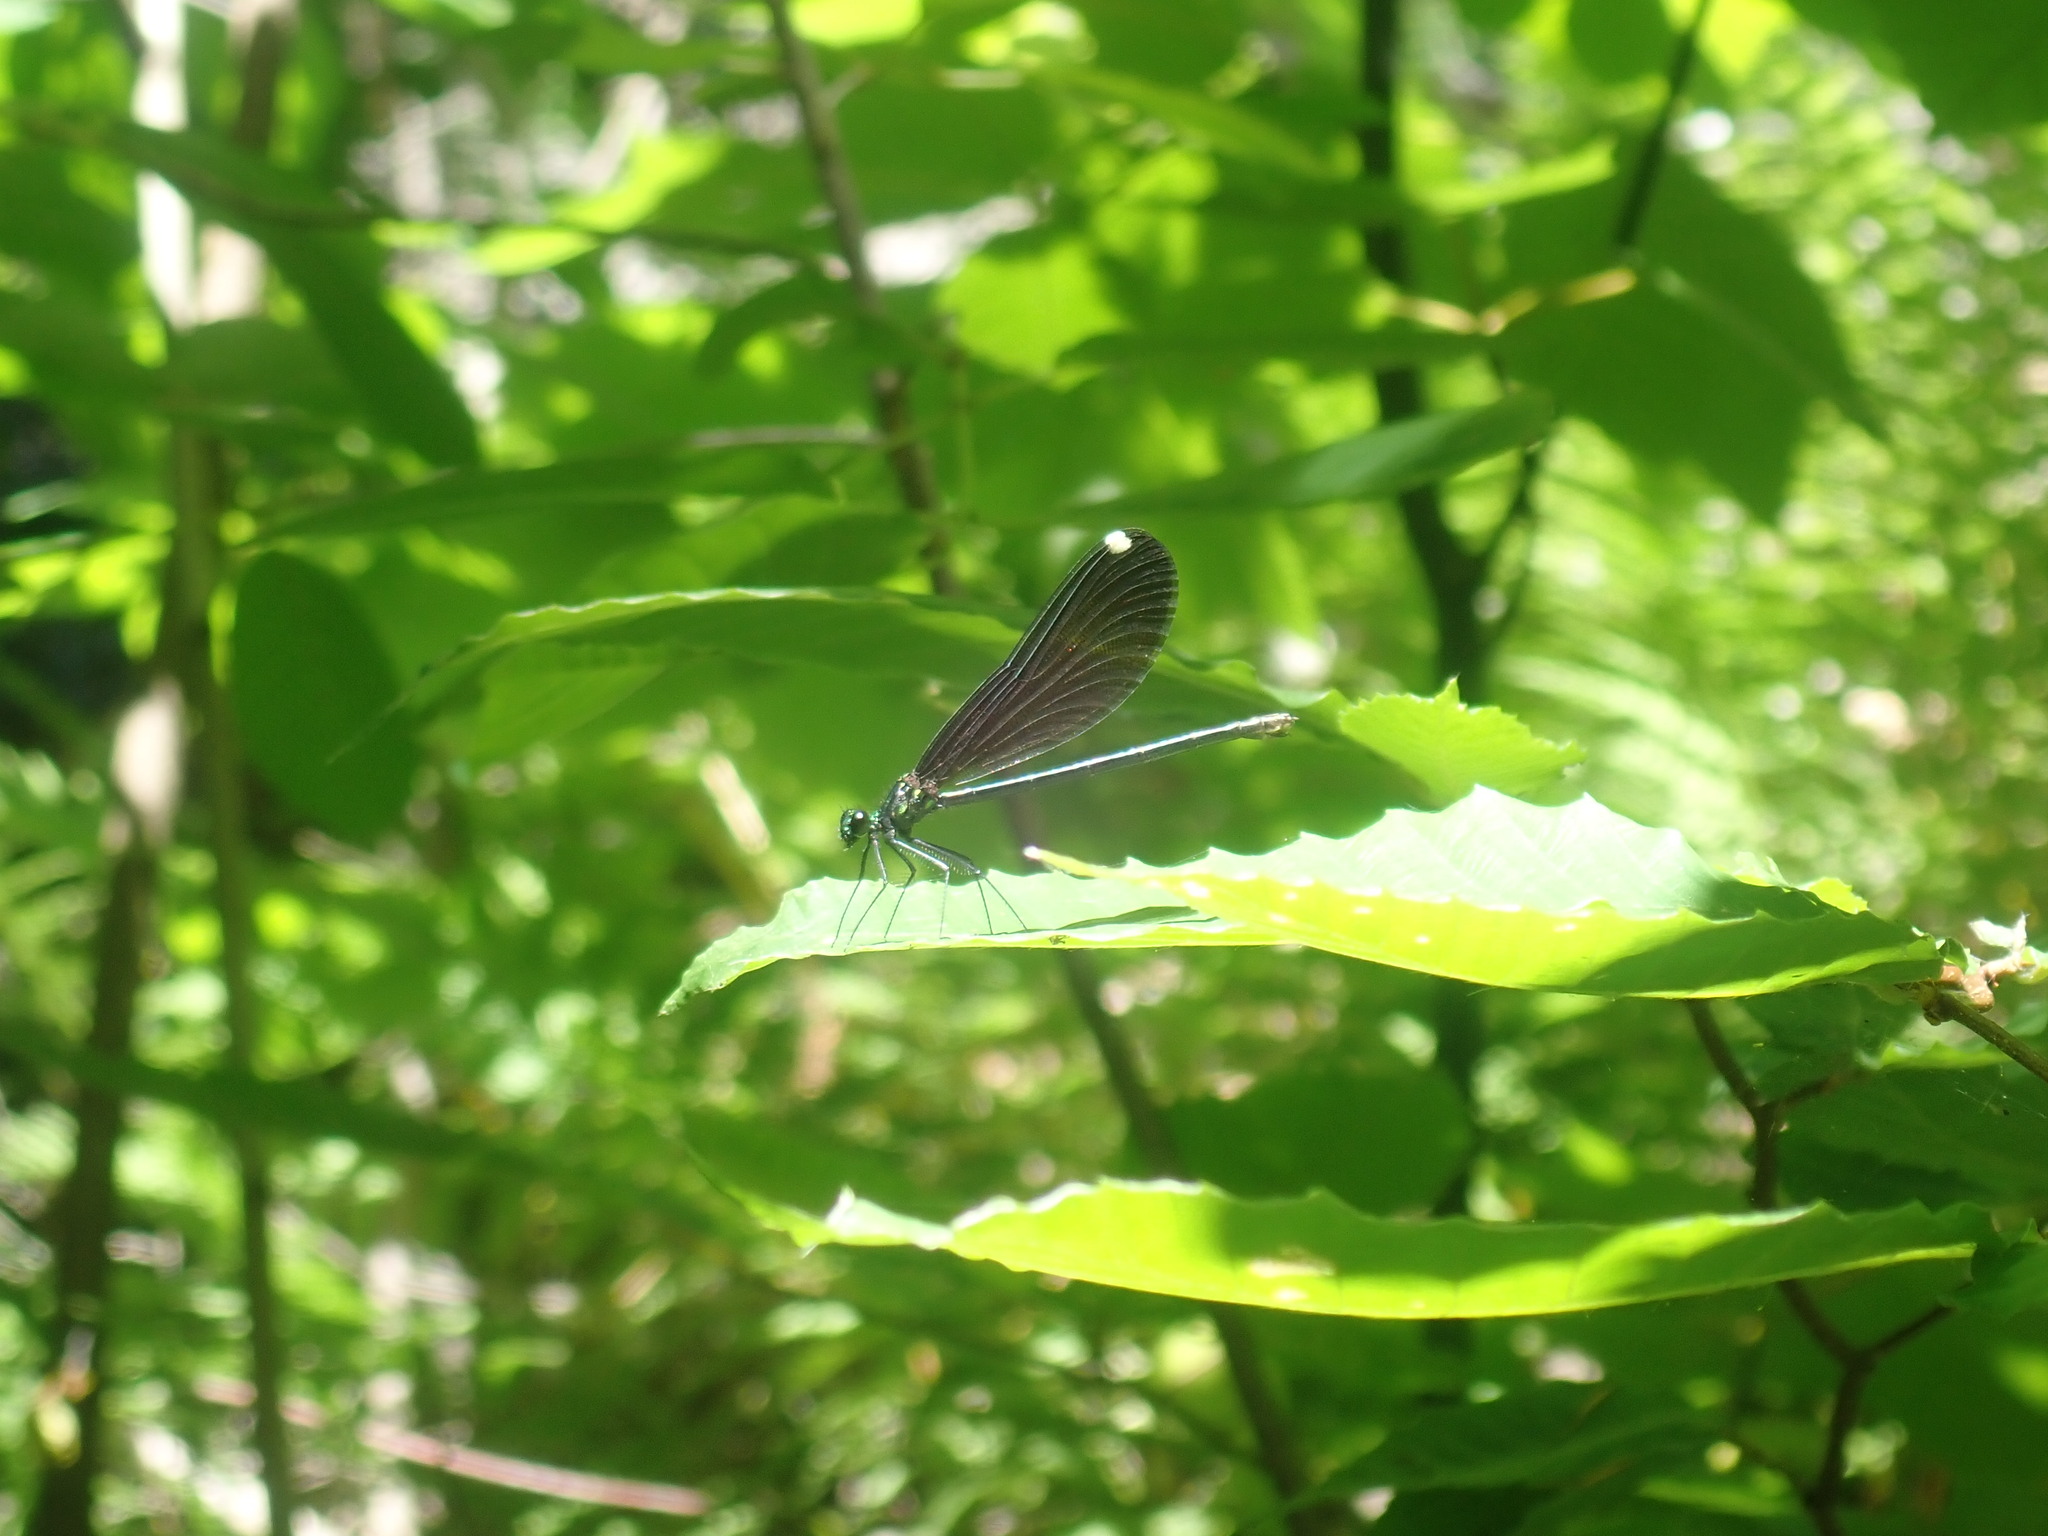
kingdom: Animalia
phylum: Arthropoda
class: Insecta
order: Odonata
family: Calopterygidae
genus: Calopteryx
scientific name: Calopteryx maculata
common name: Ebony jewelwing
